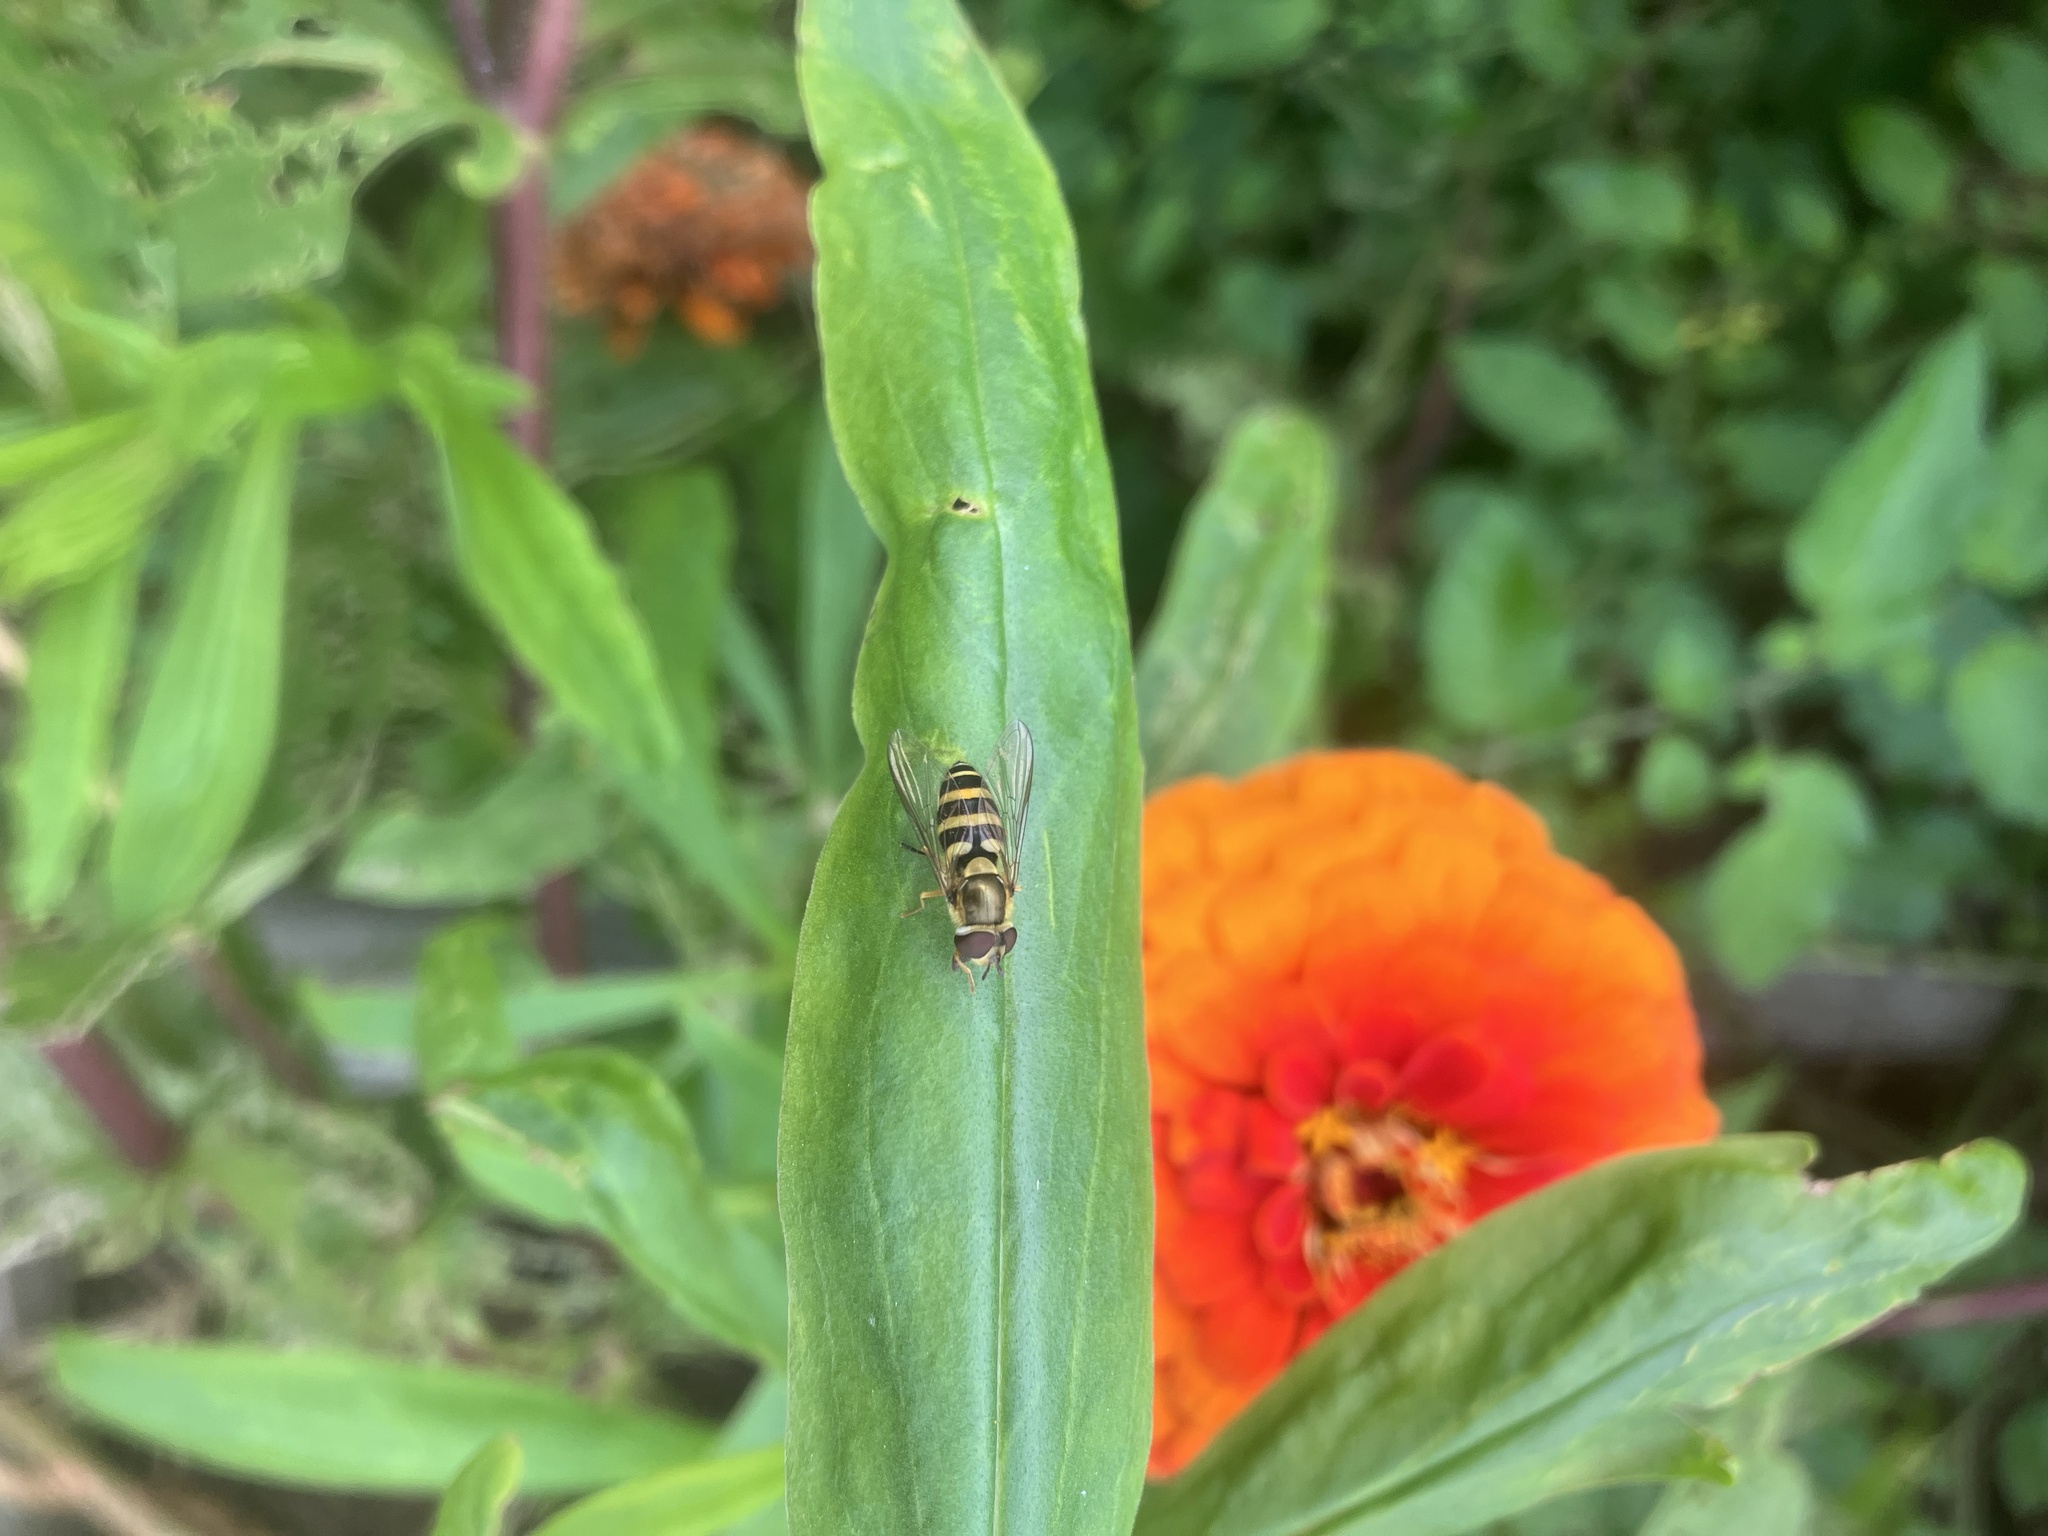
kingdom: Animalia
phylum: Arthropoda
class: Insecta
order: Diptera
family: Syrphidae
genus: Syrphus
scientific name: Syrphus rectus
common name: Yellow-legged flower fly
